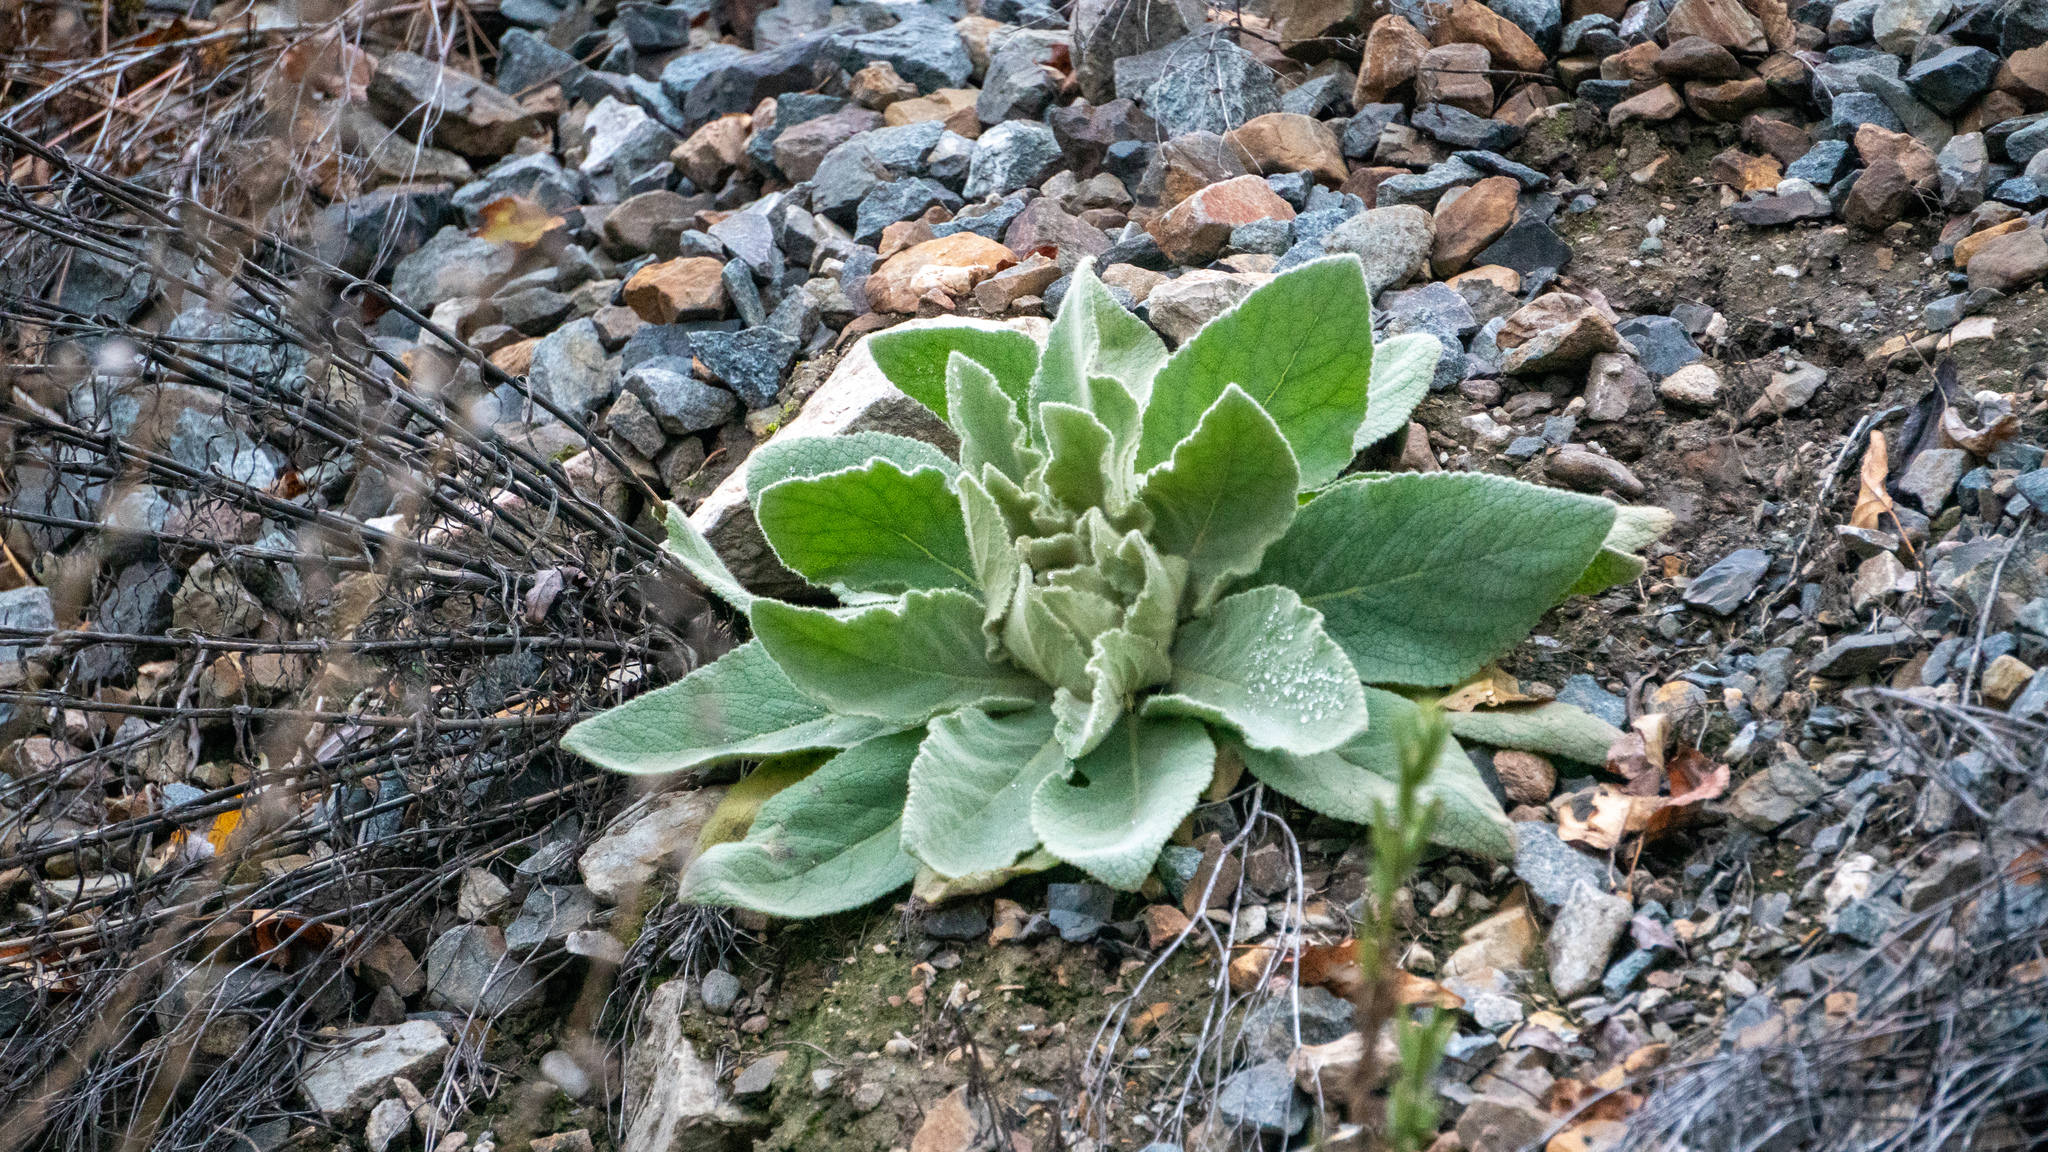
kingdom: Plantae
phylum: Tracheophyta
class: Magnoliopsida
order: Lamiales
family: Scrophulariaceae
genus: Verbascum
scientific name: Verbascum thapsus
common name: Common mullein
